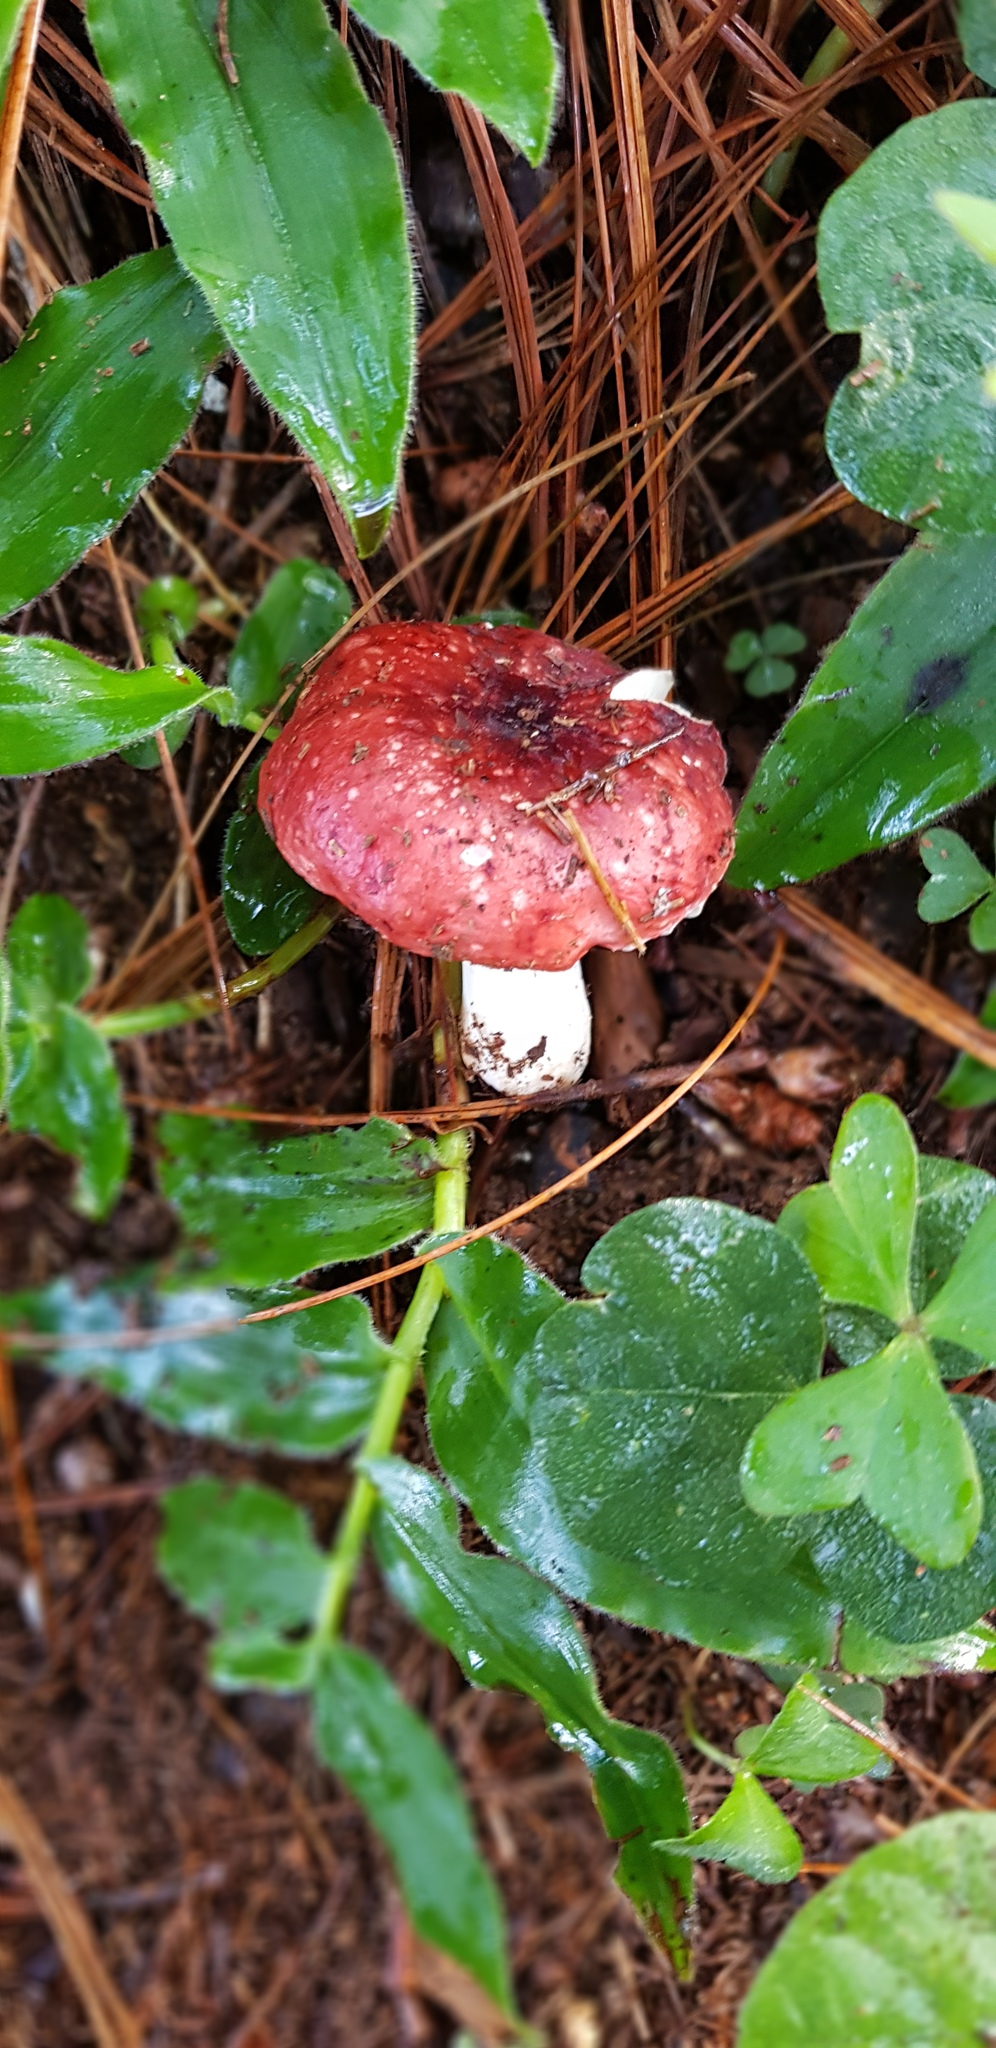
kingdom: Fungi
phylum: Basidiomycota
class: Agaricomycetes
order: Russulales
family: Russulaceae
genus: Russula
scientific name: Russula sanguinea
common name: Bloody brittlegill
